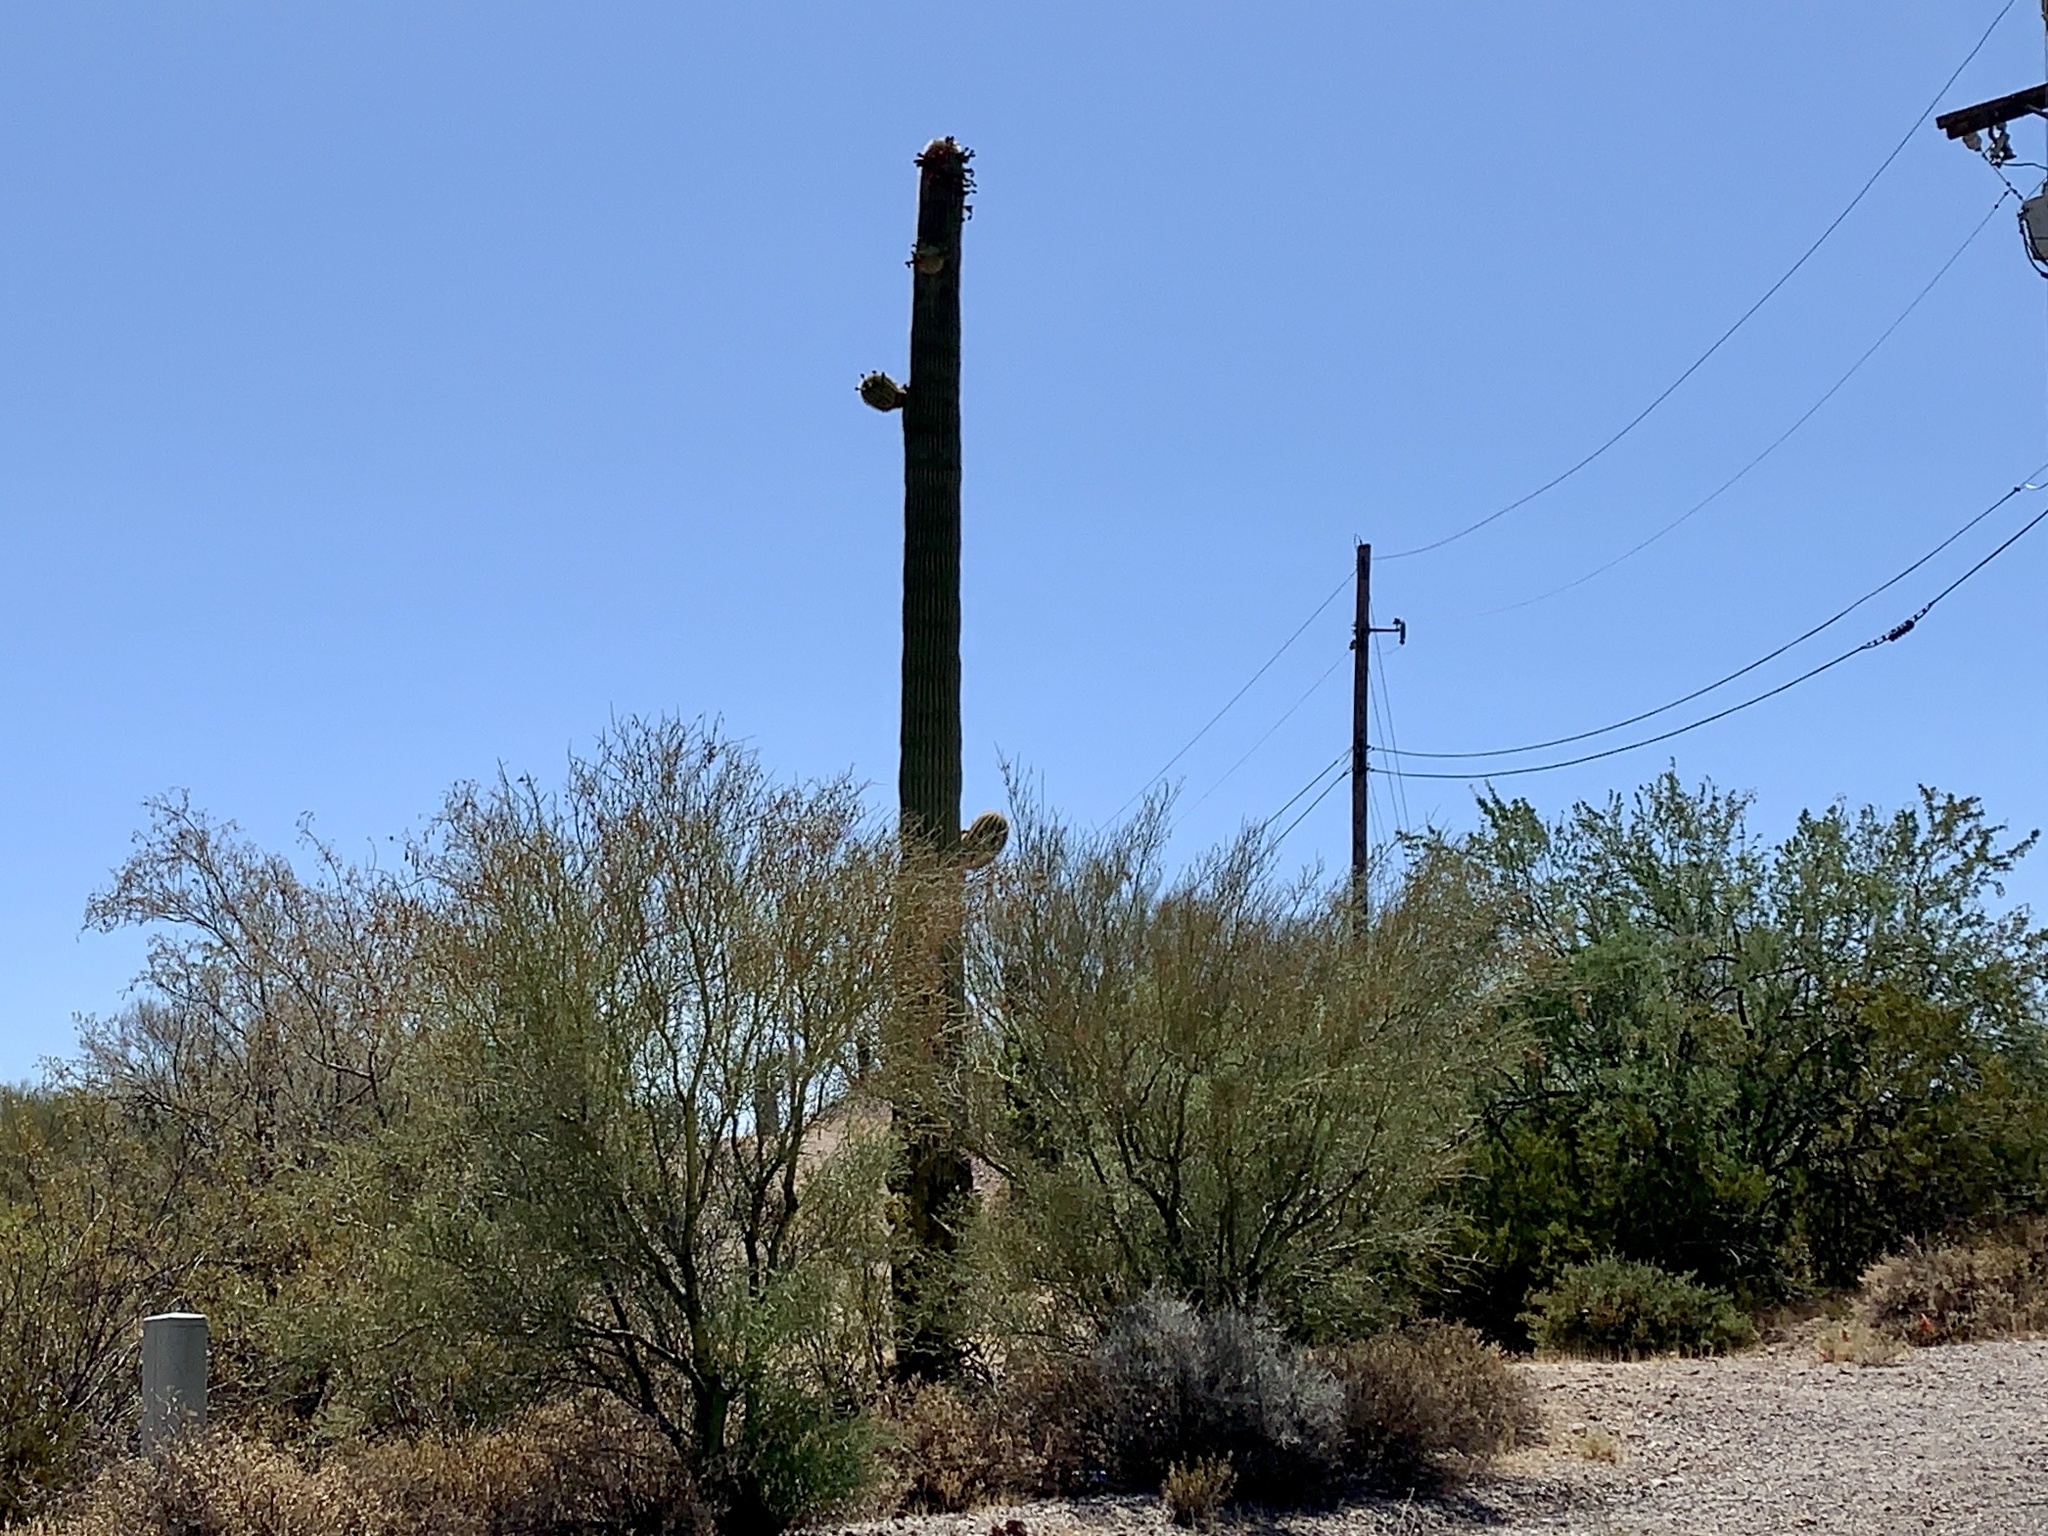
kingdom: Plantae
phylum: Tracheophyta
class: Magnoliopsida
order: Caryophyllales
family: Cactaceae
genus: Carnegiea
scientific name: Carnegiea gigantea
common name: Saguaro
